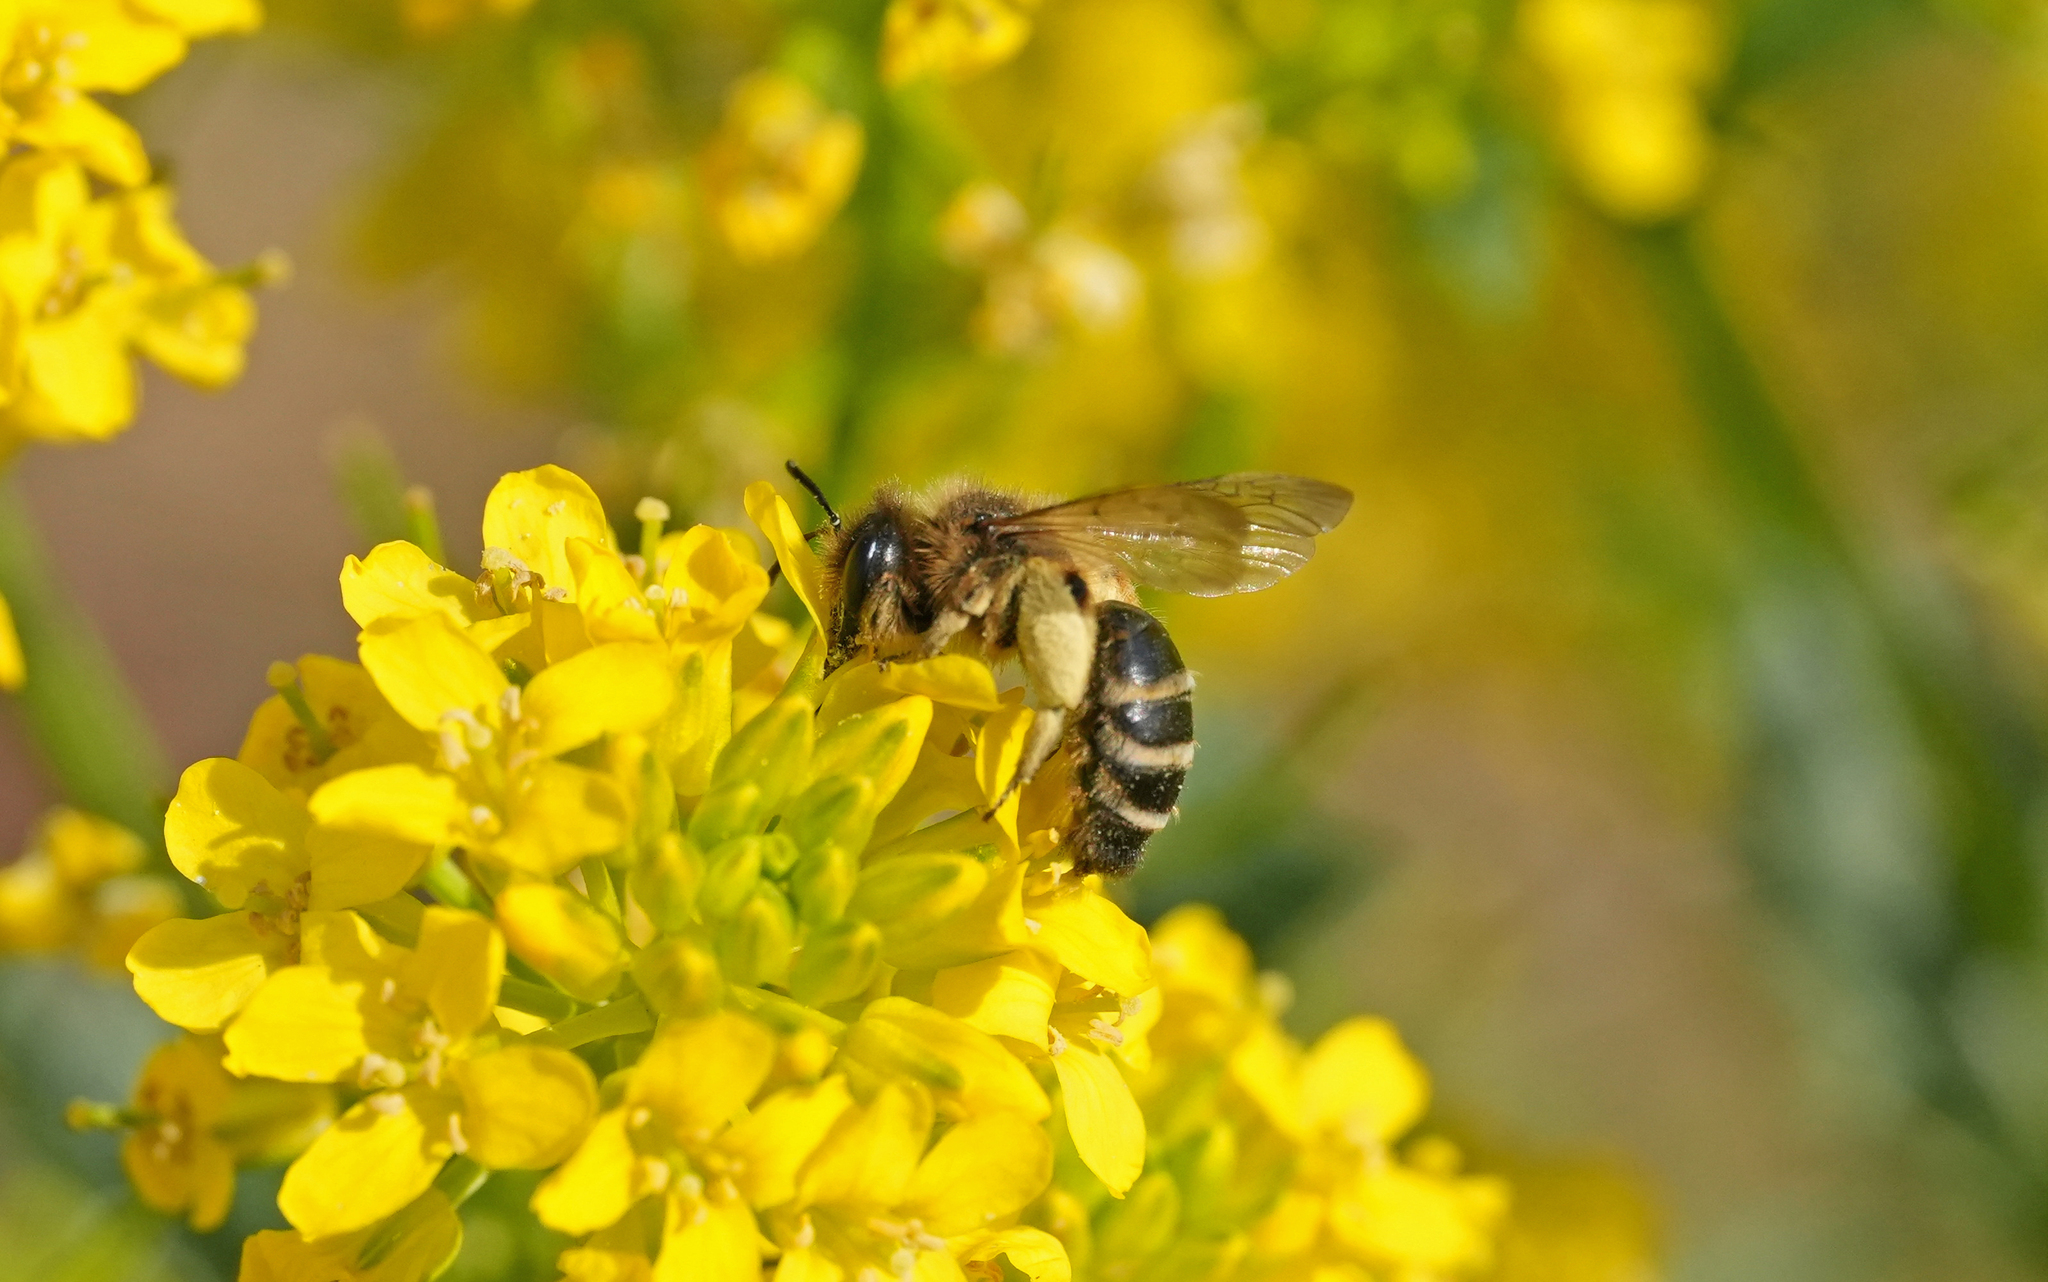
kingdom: Animalia
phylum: Arthropoda
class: Insecta
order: Hymenoptera
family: Andrenidae
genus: Andrena
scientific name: Andrena flavipes
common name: Yellow-legged mining bee
